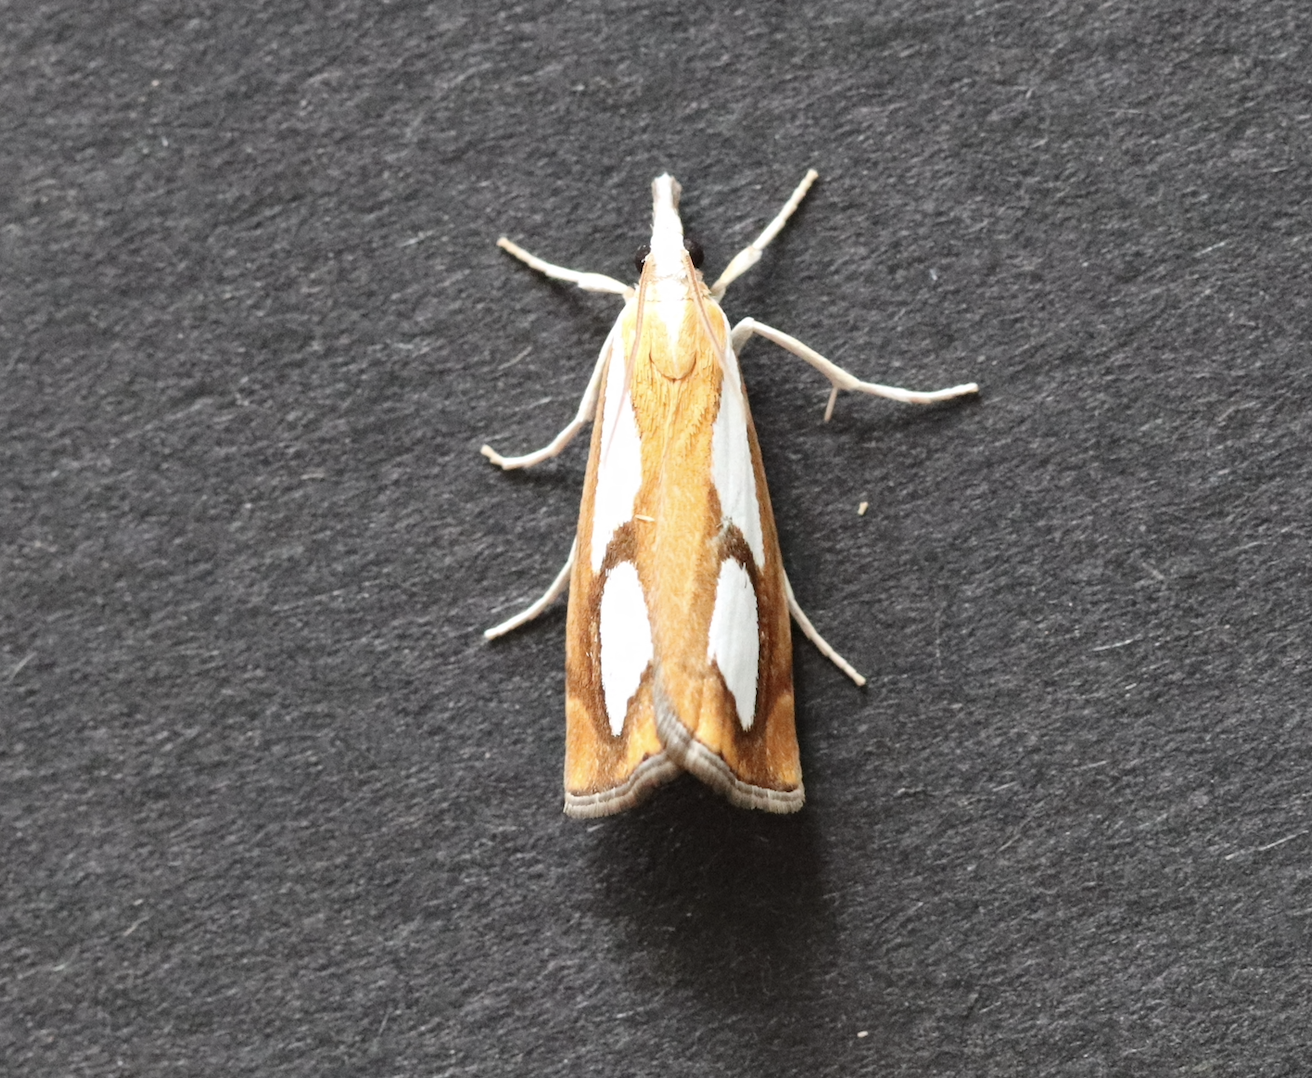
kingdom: Animalia
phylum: Arthropoda
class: Insecta
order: Lepidoptera
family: Crambidae
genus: Catoptria
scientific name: Catoptria pinella
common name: Pearl grass-veneer
